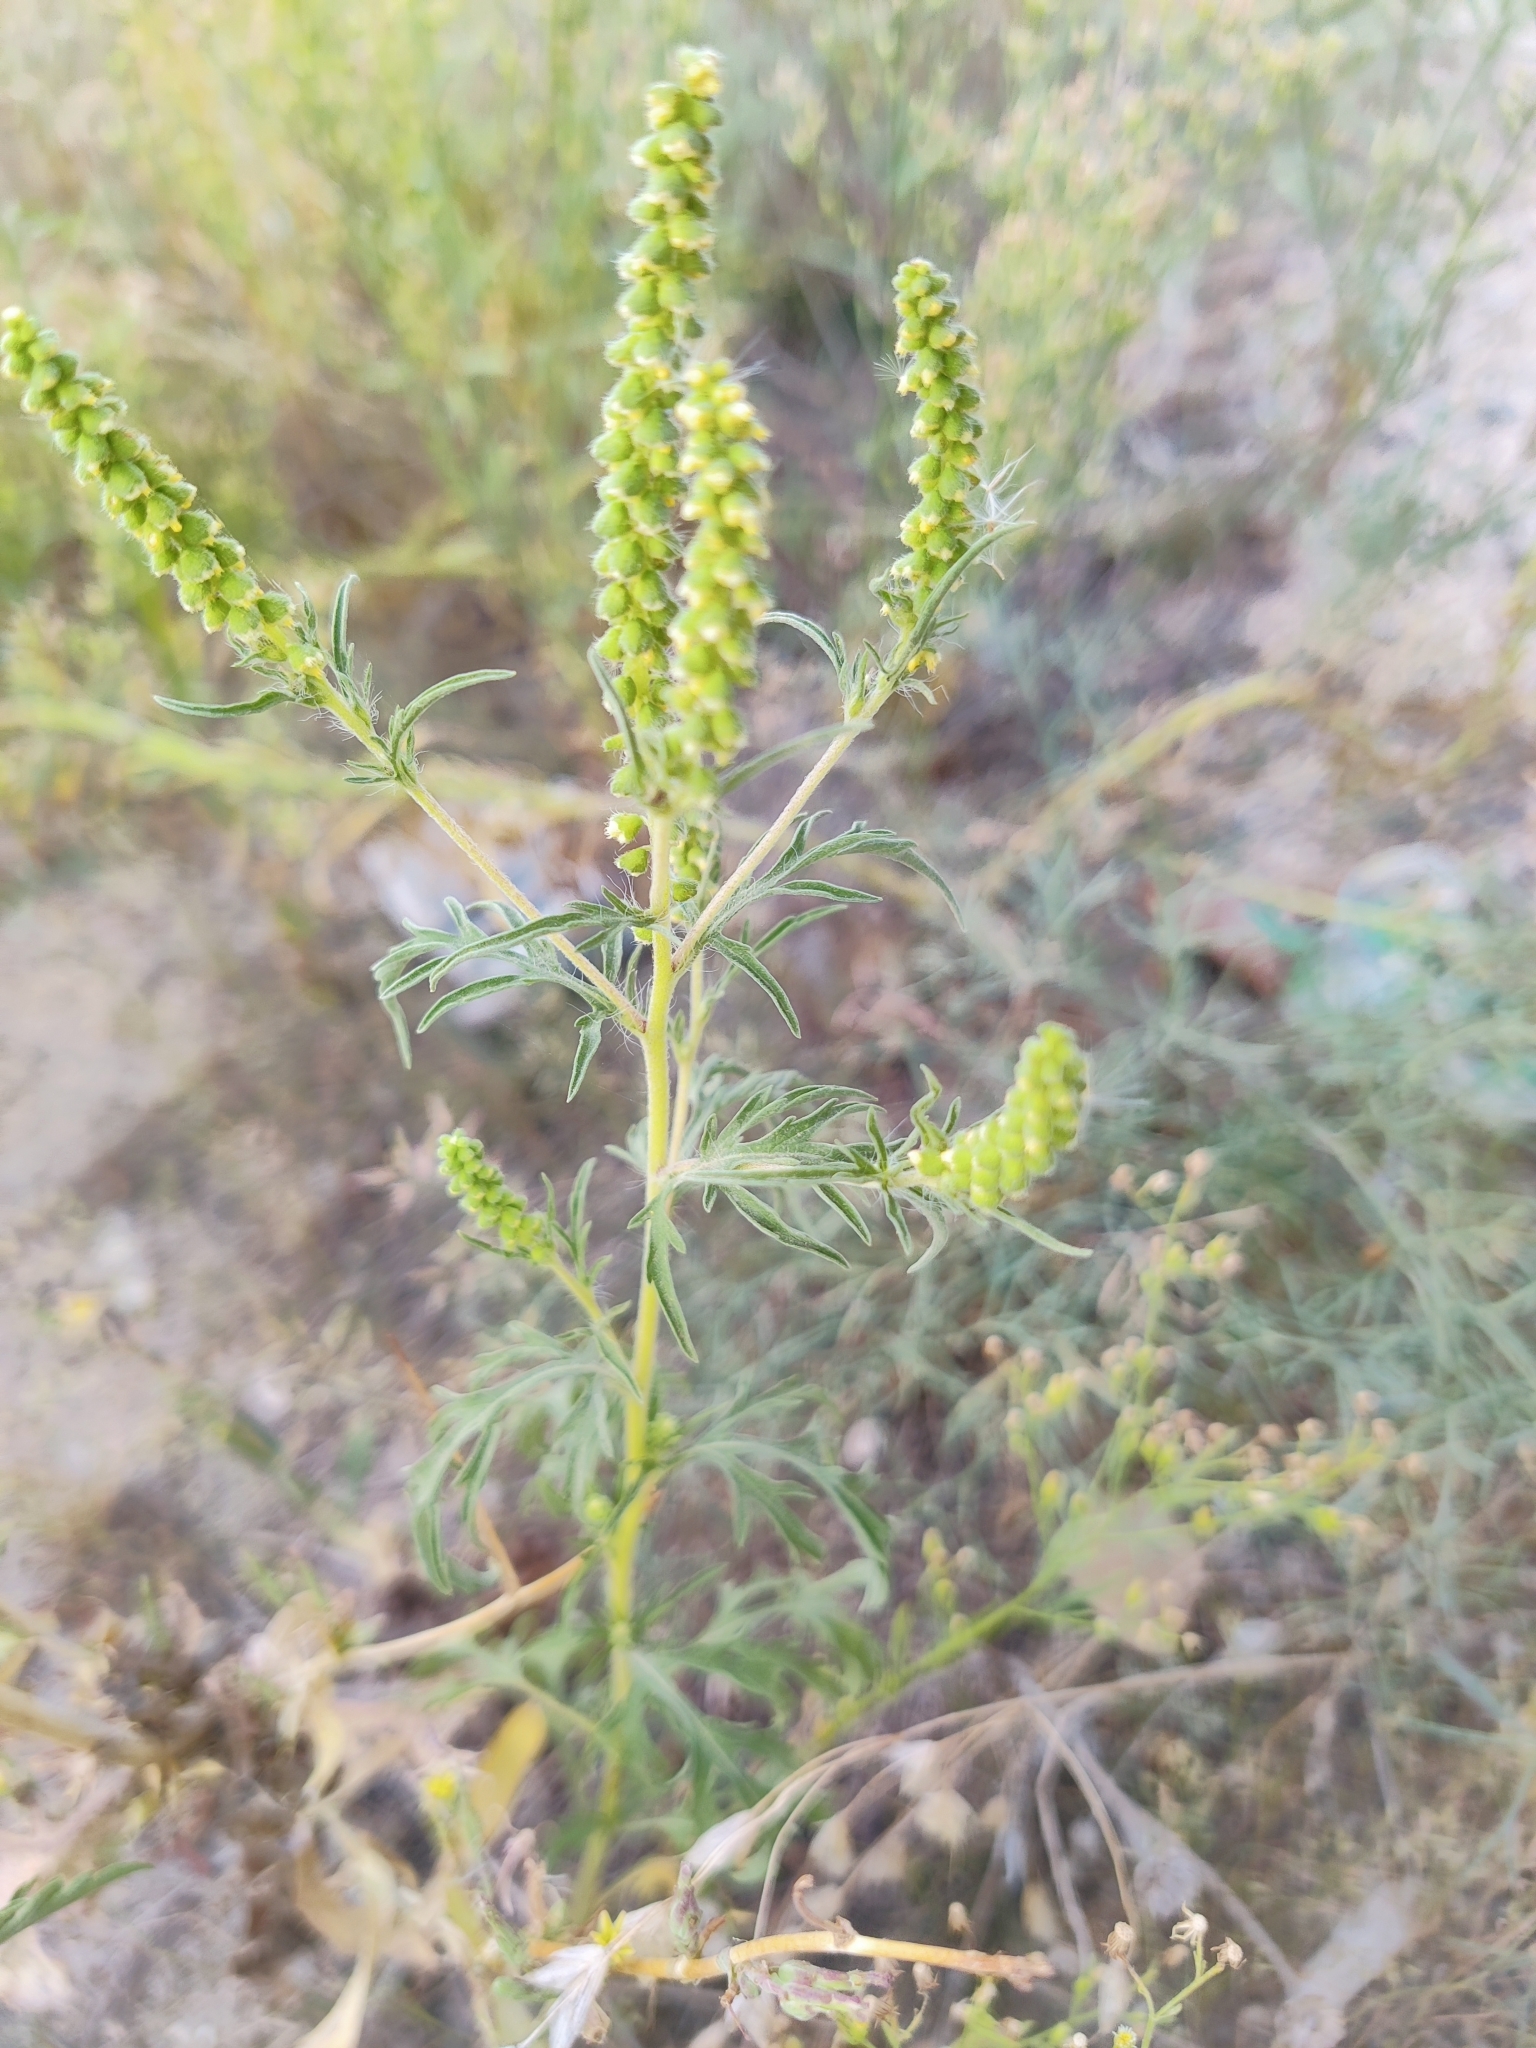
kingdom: Plantae
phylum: Tracheophyta
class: Magnoliopsida
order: Asterales
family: Asteraceae
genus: Ambrosia
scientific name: Ambrosia artemisiifolia
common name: Annual ragweed
